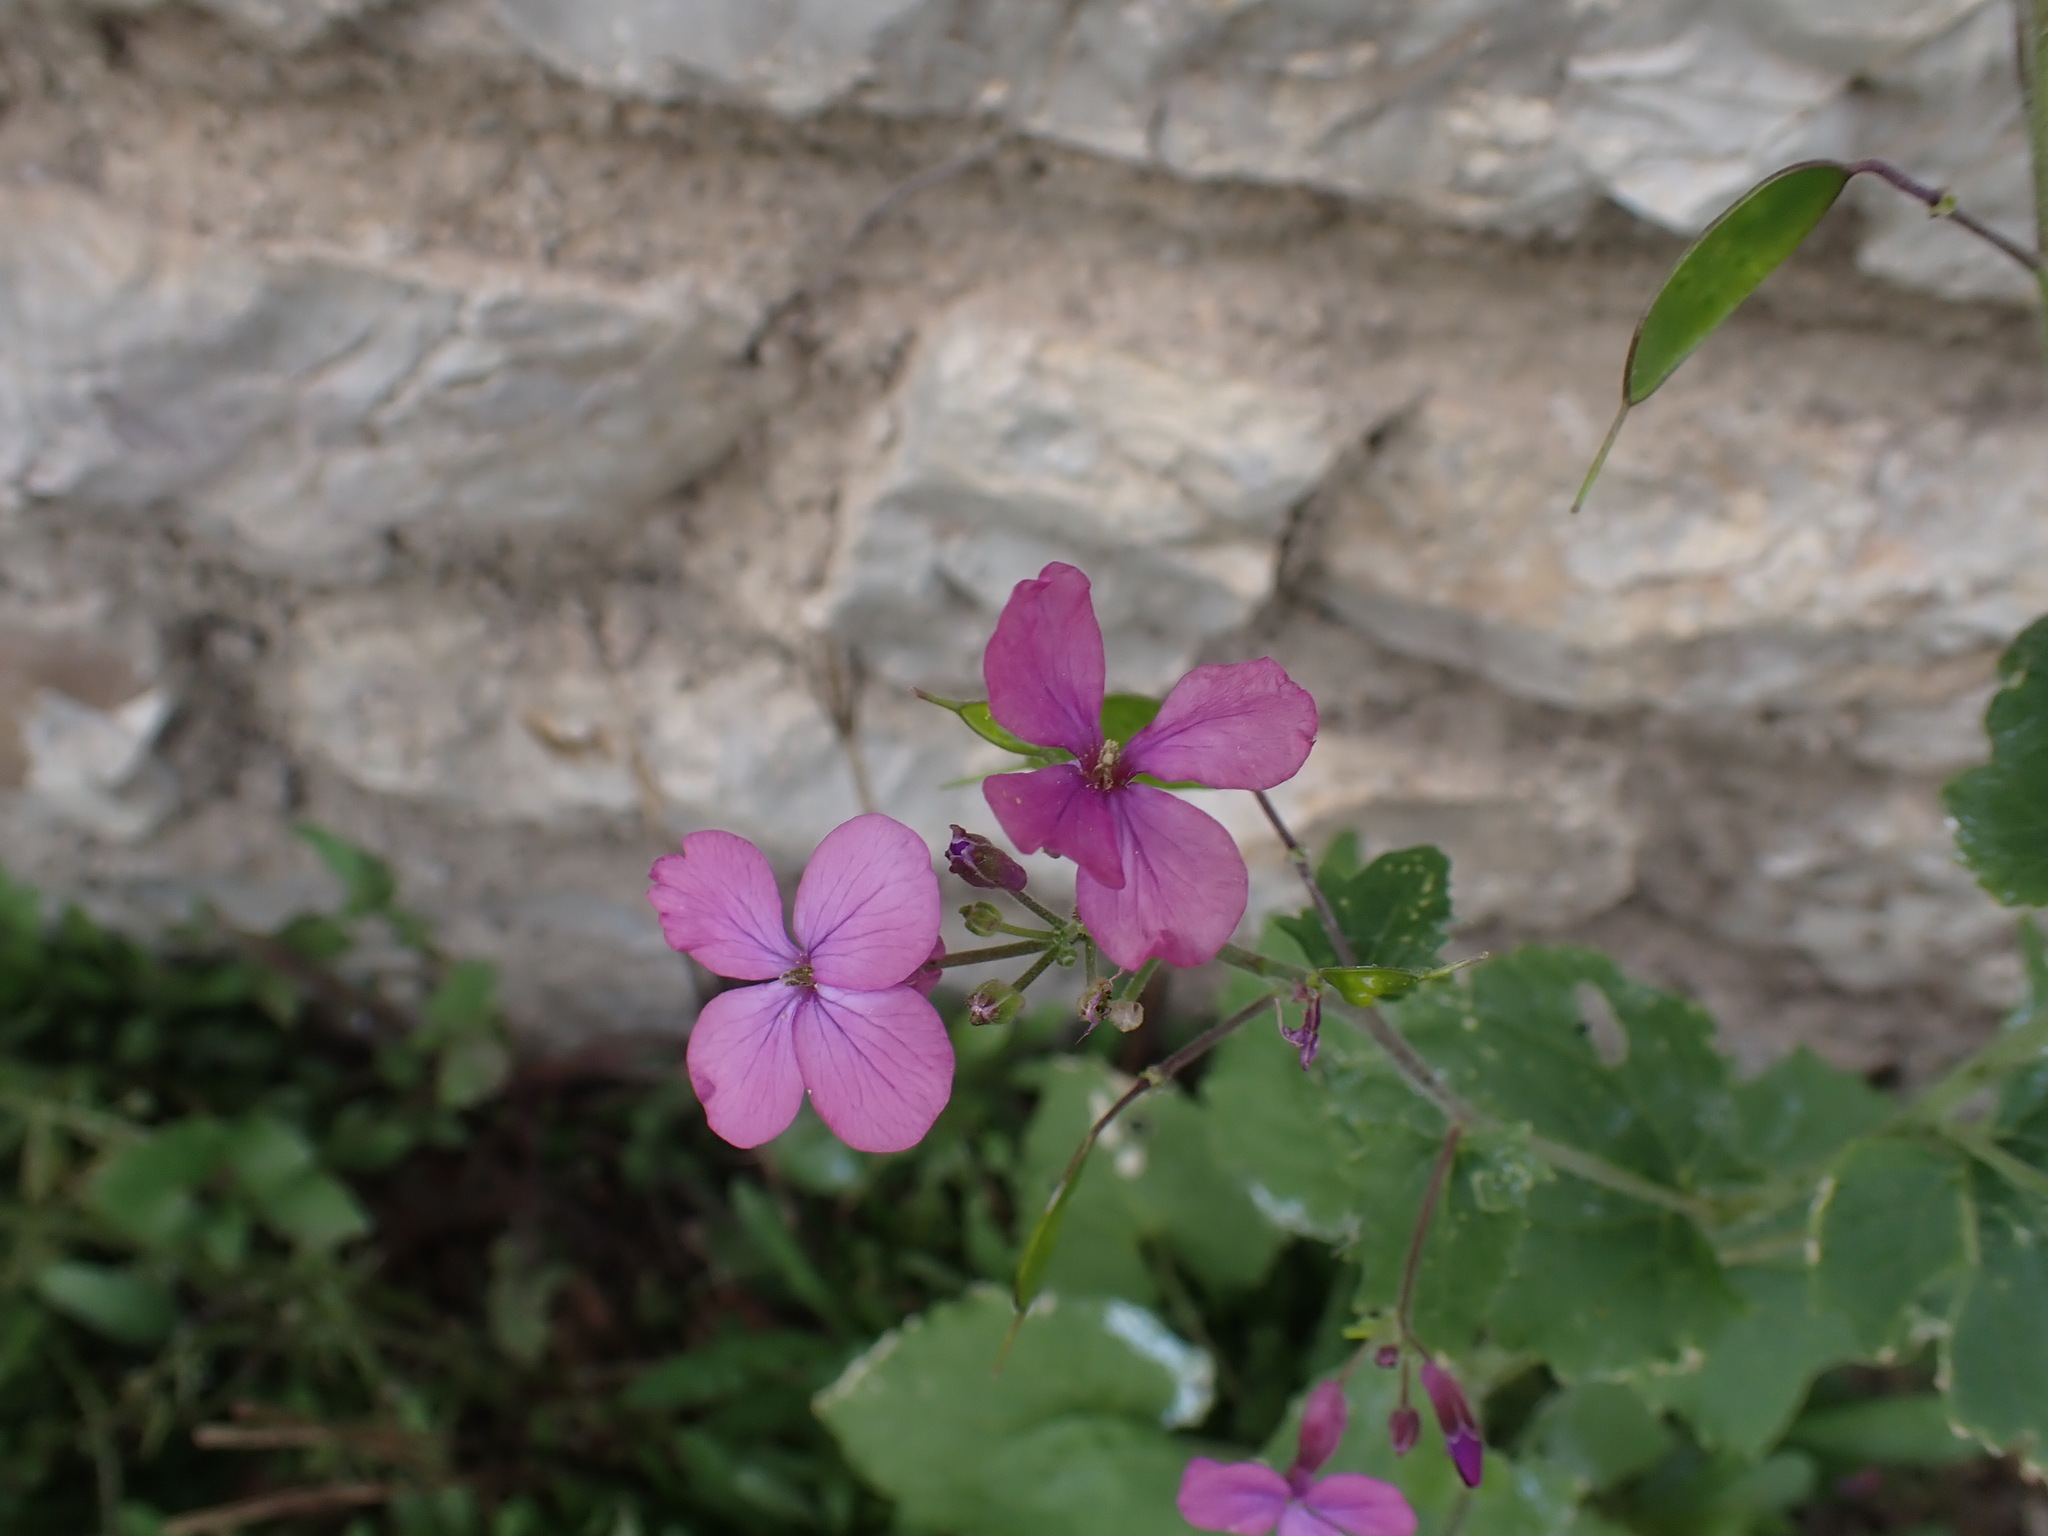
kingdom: Plantae
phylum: Tracheophyta
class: Magnoliopsida
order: Brassicales
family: Brassicaceae
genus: Lunaria
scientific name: Lunaria annua
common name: Honesty
